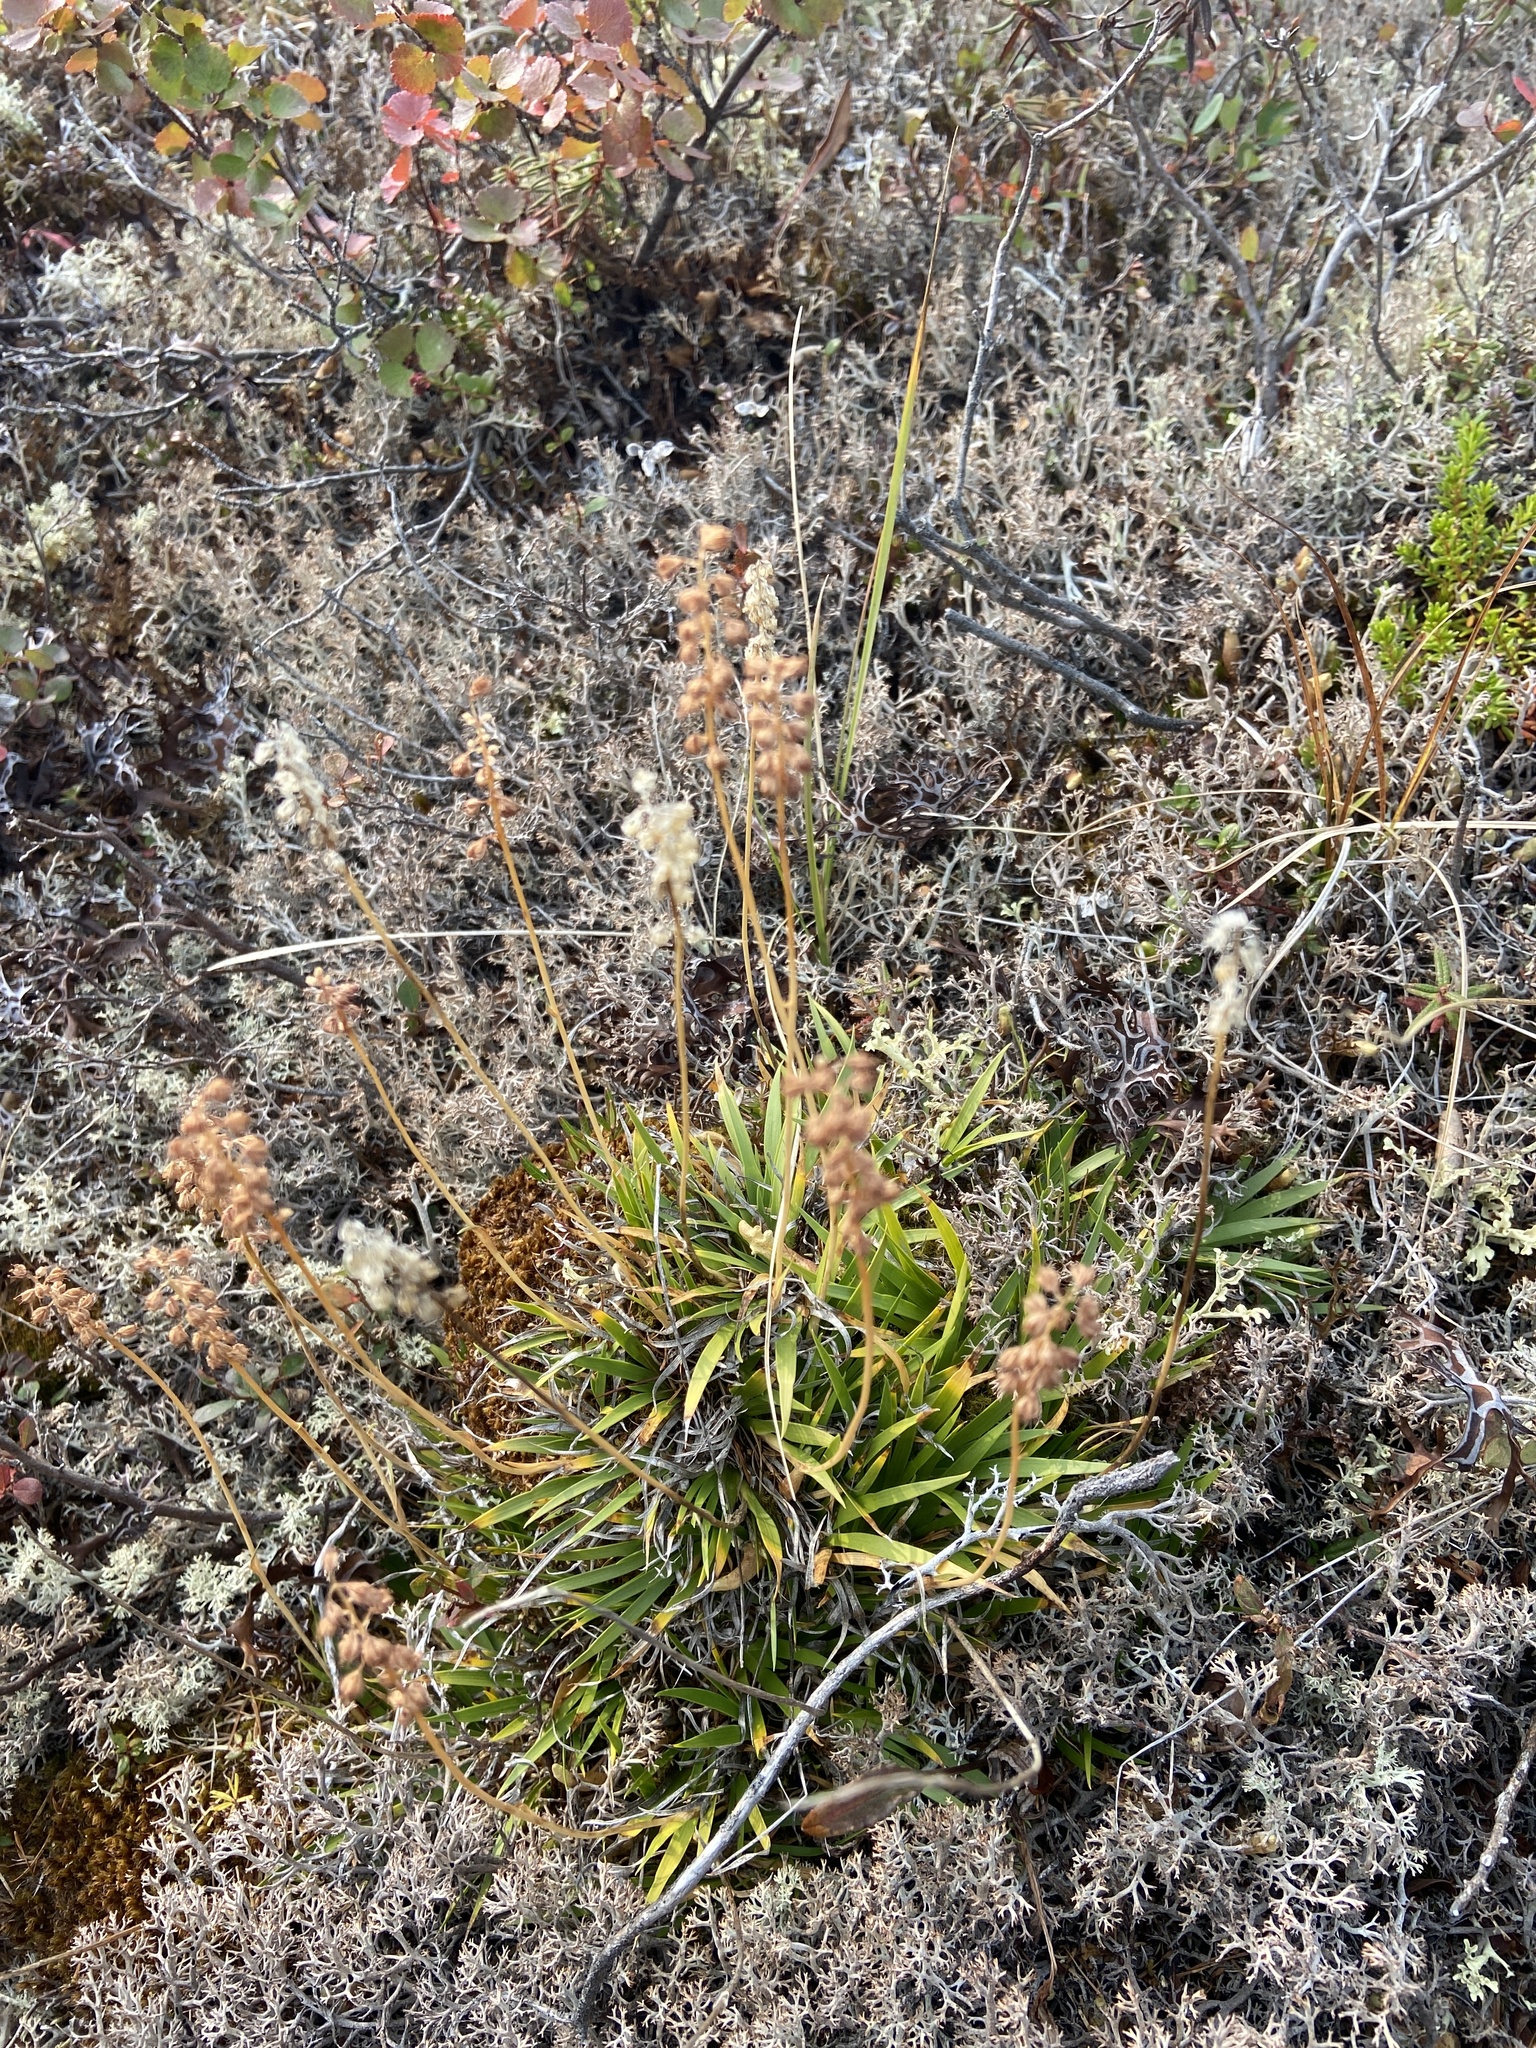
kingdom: Plantae
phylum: Tracheophyta
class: Liliopsida
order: Alismatales
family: Tofieldiaceae
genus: Tofieldia
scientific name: Tofieldia coccinea
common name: Northern false asphodel
